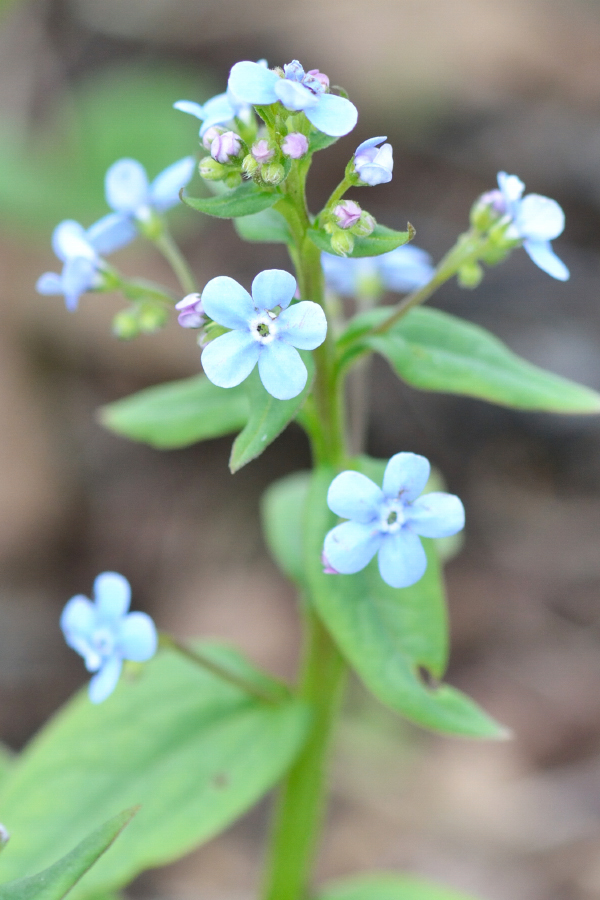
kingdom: Plantae
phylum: Tracheophyta
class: Magnoliopsida
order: Boraginales
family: Boraginaceae
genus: Brunnera
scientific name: Brunnera sibirica
